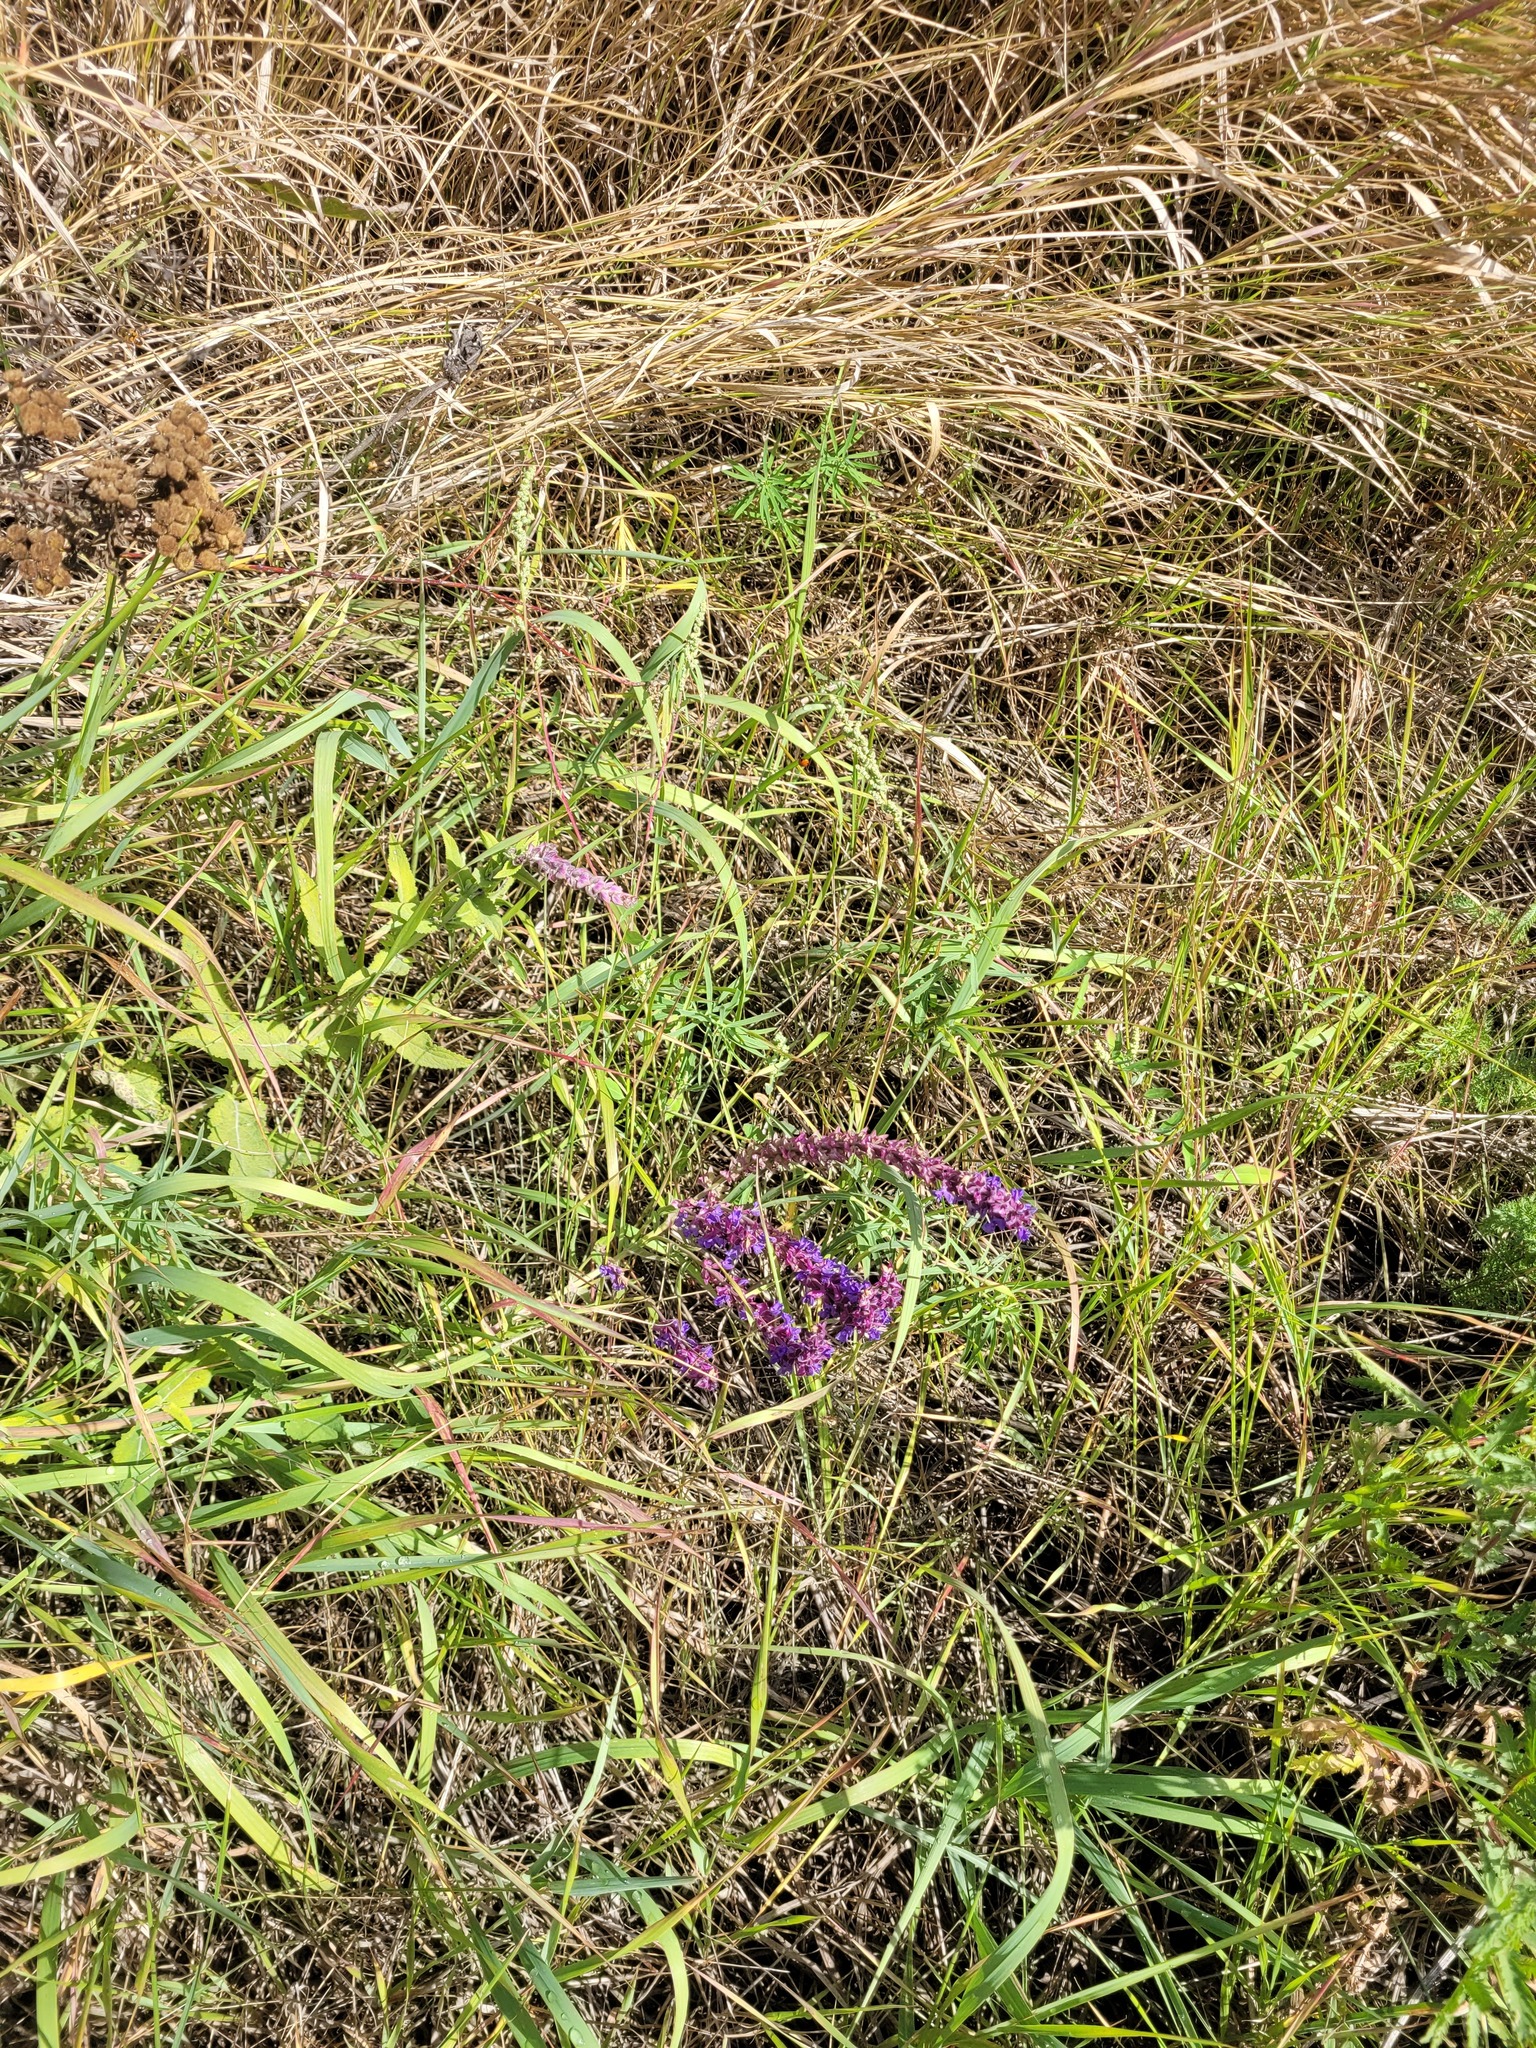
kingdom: Plantae
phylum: Tracheophyta
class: Magnoliopsida
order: Lamiales
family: Lamiaceae
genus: Salvia
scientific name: Salvia nemorosa
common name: Balkan clary
